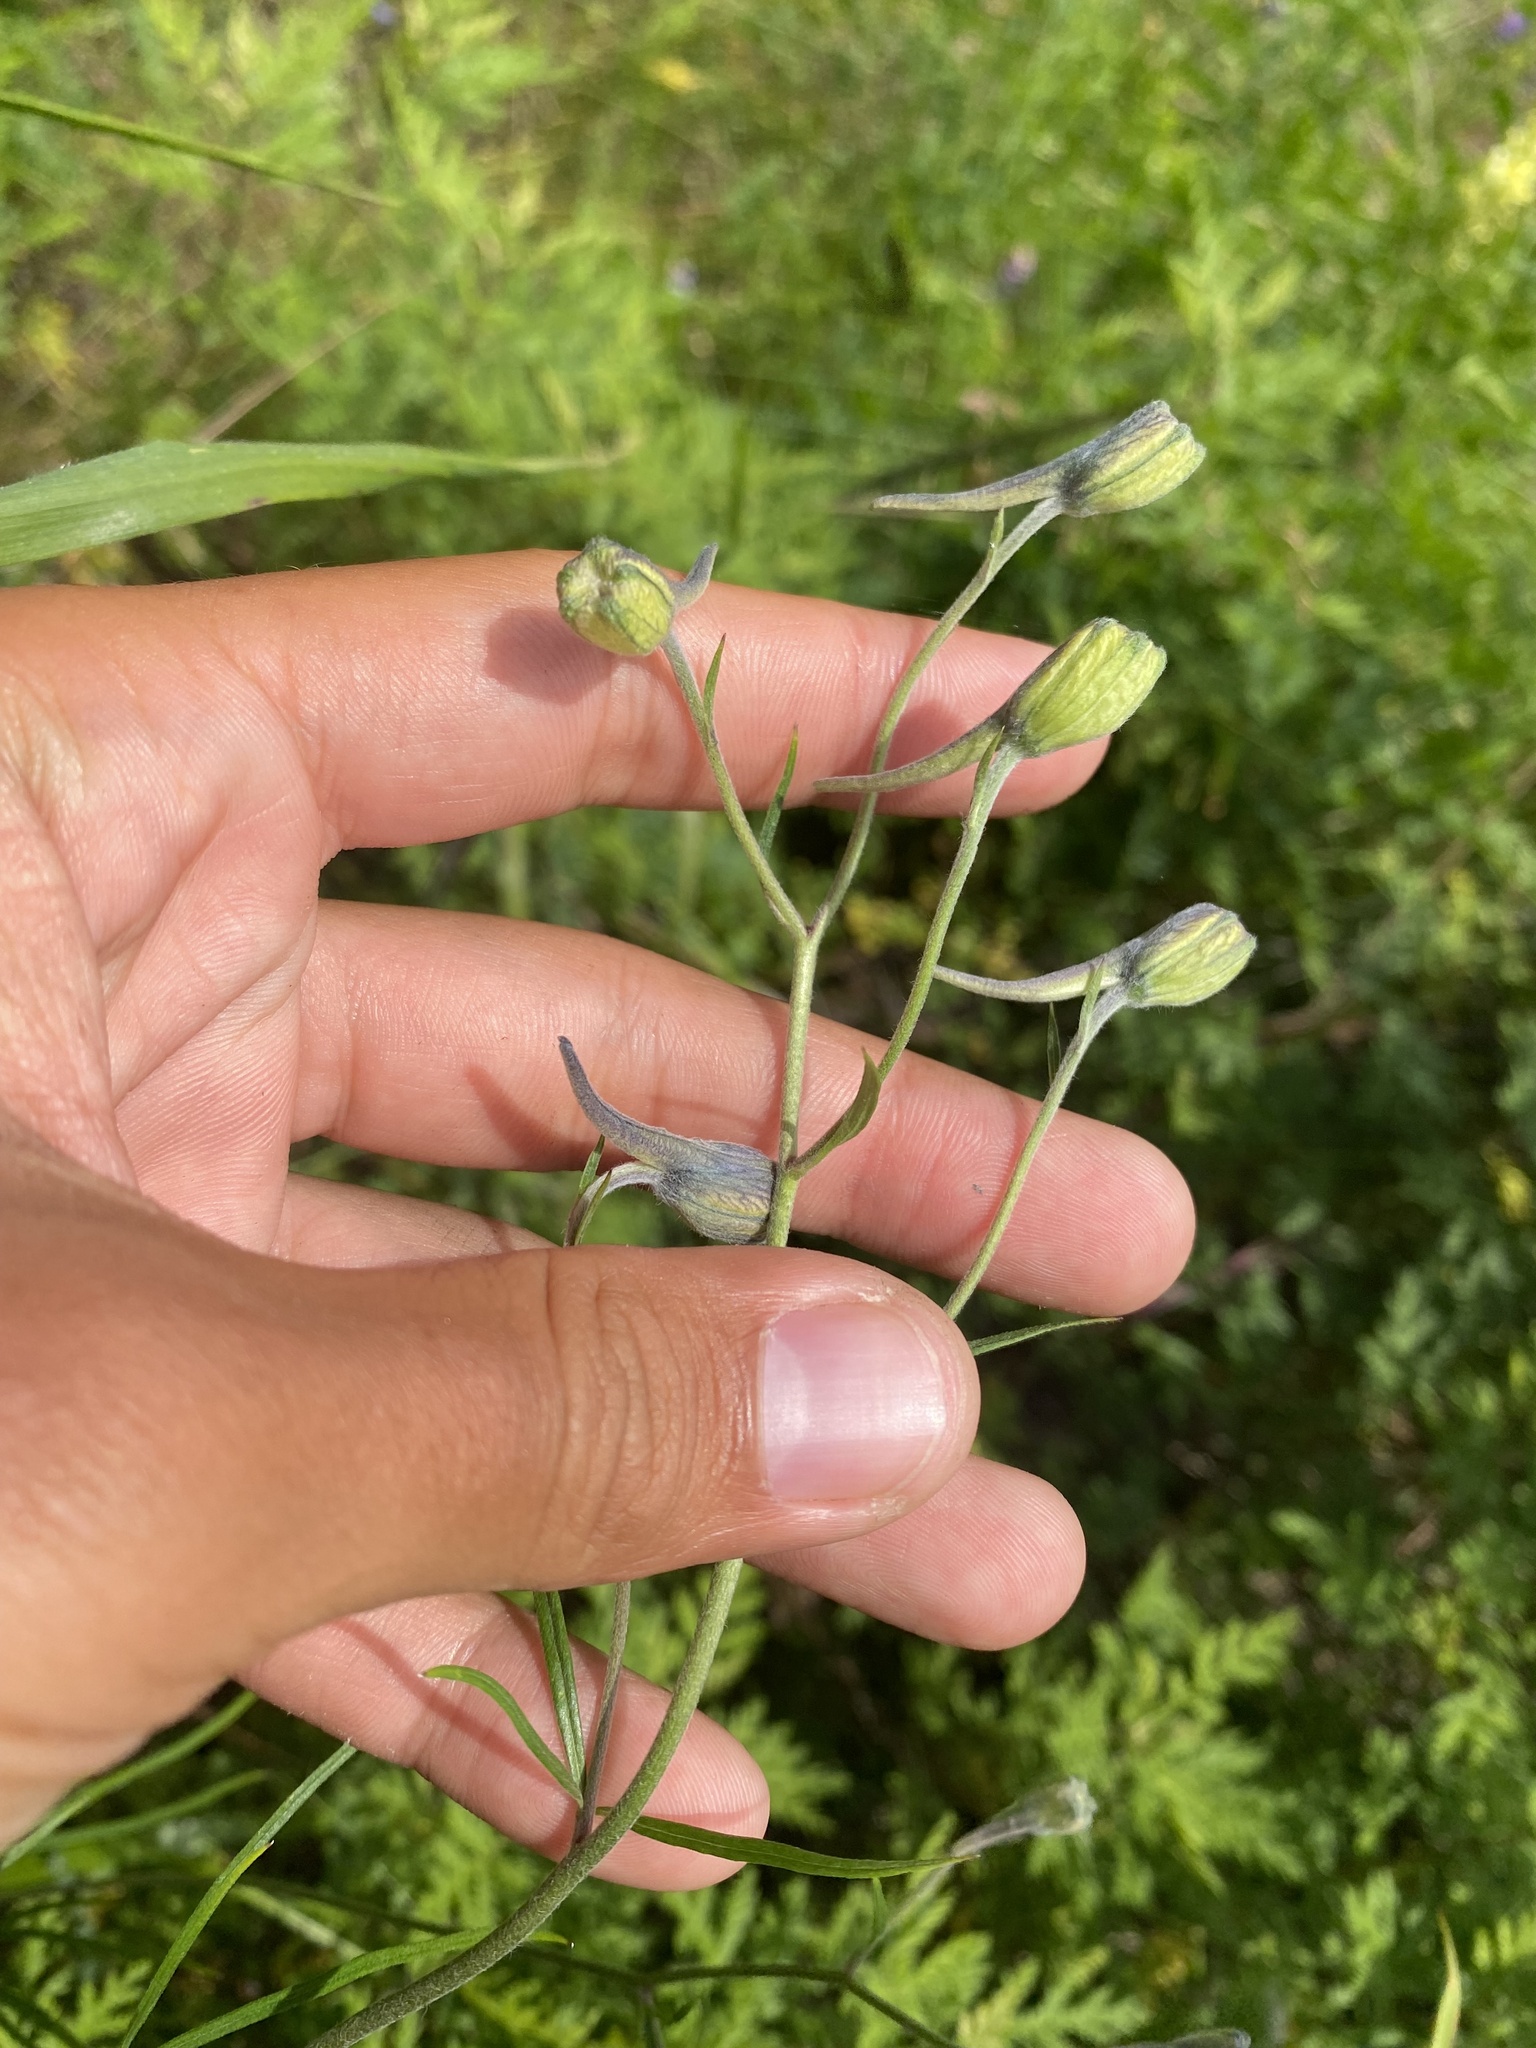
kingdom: Plantae
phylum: Tracheophyta
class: Magnoliopsida
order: Ranunculales
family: Ranunculaceae
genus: Delphinium
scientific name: Delphinium grandiflorum
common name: Siberian larkspur
